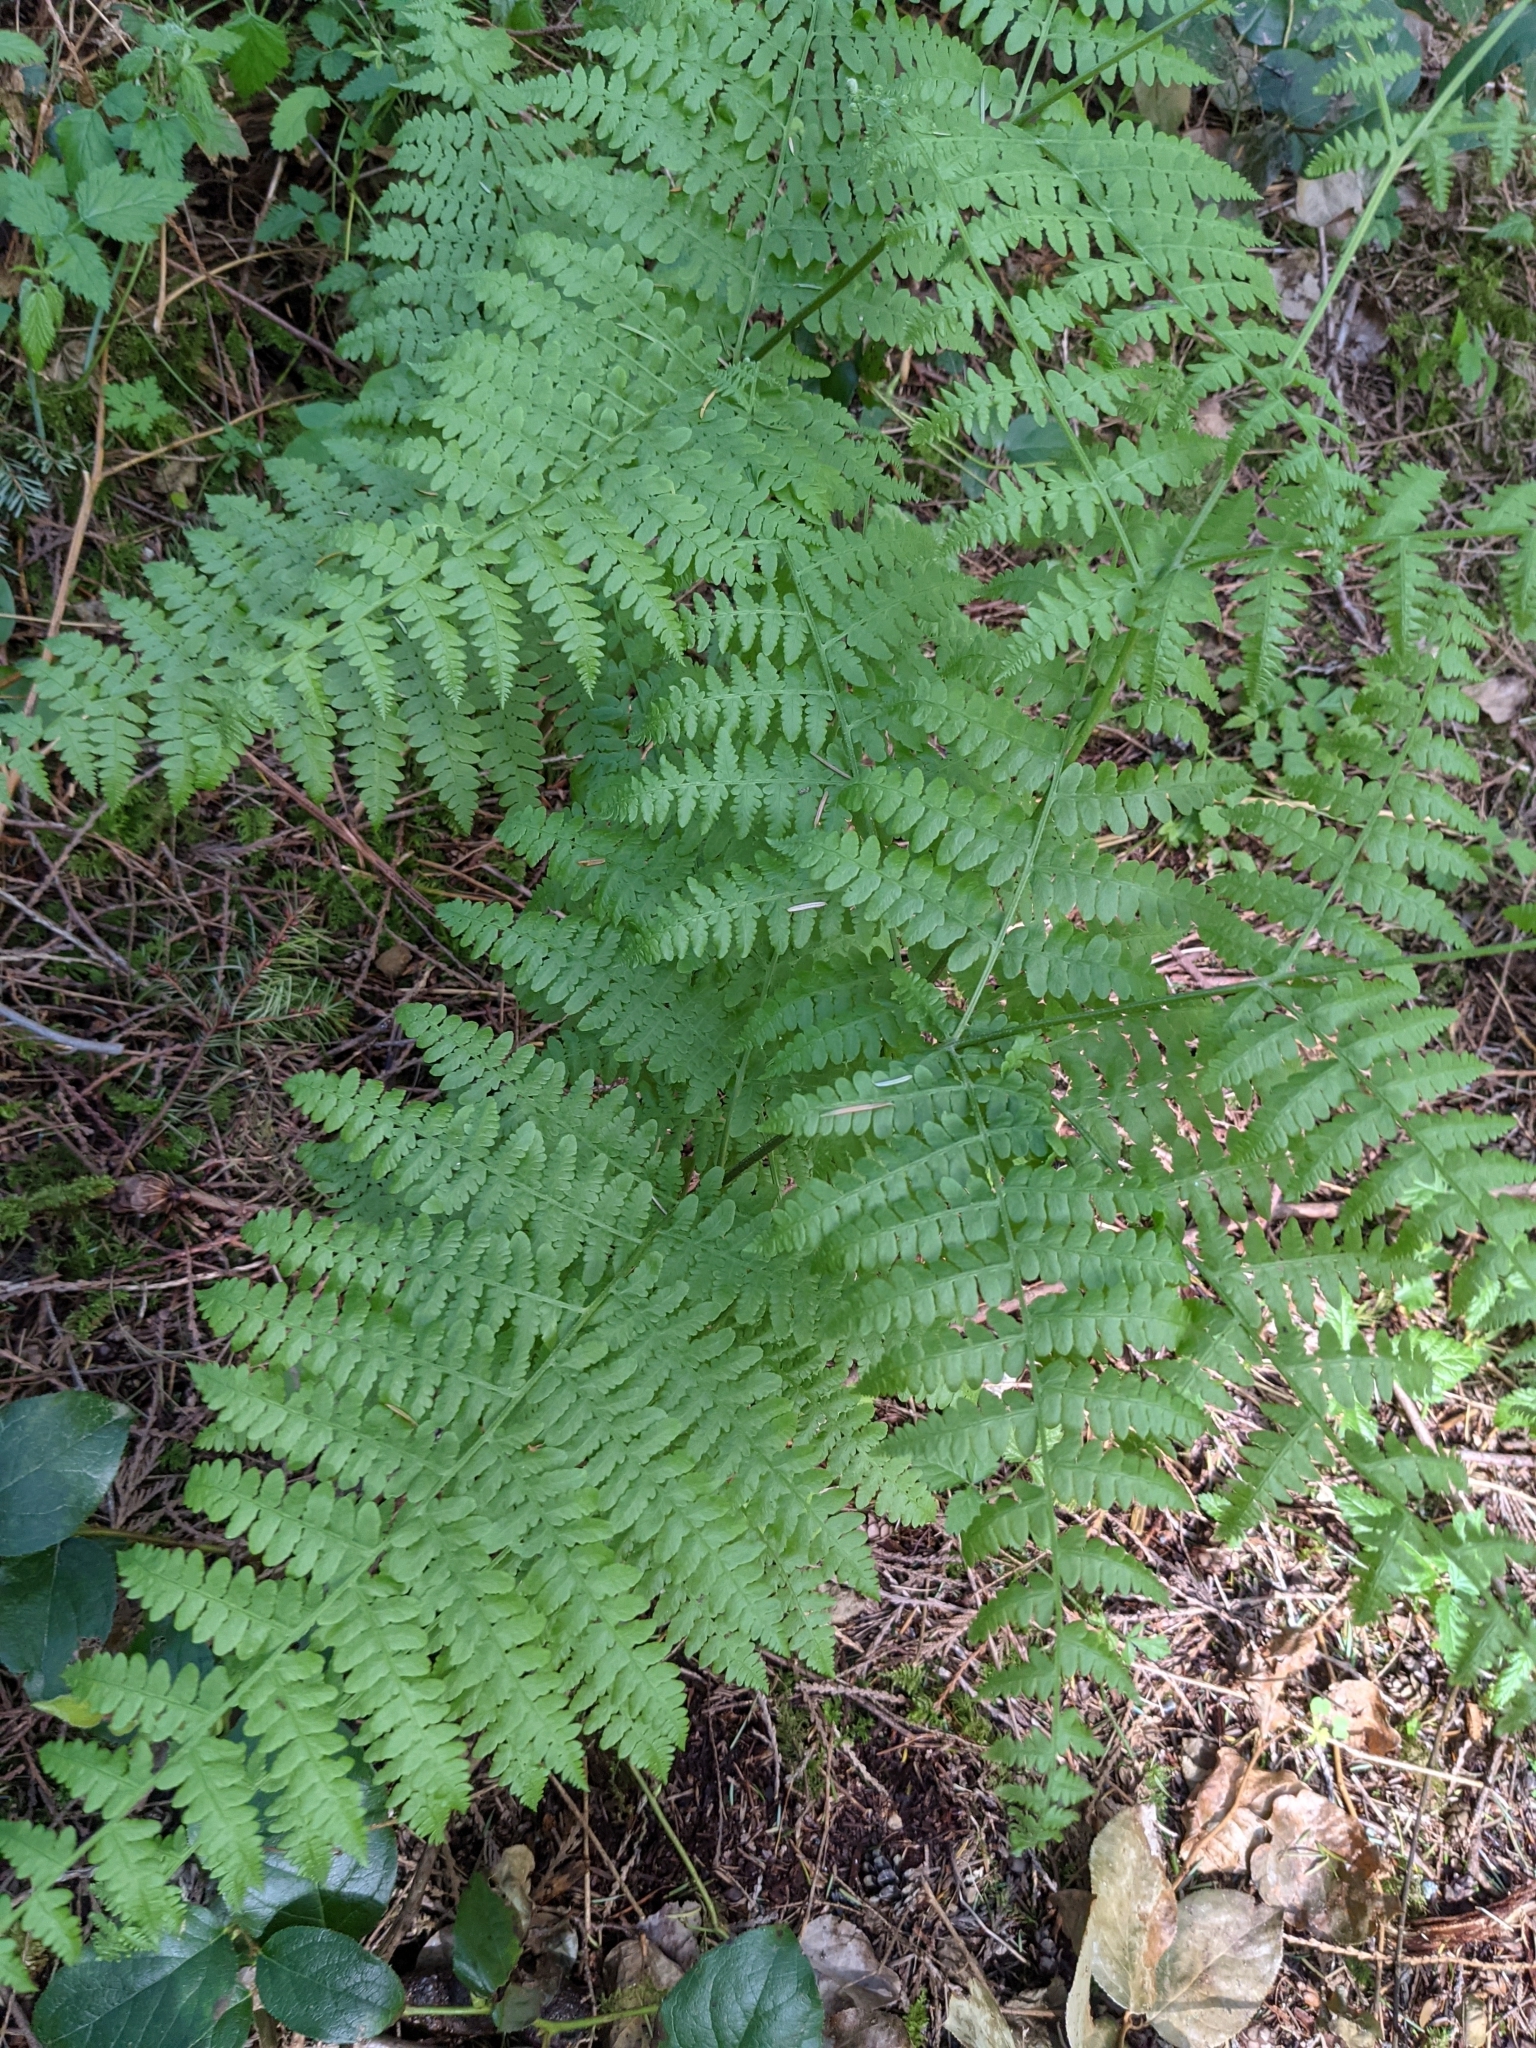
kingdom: Plantae
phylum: Tracheophyta
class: Polypodiopsida
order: Polypodiales
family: Dennstaedtiaceae
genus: Pteridium
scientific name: Pteridium aquilinum
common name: Bracken
